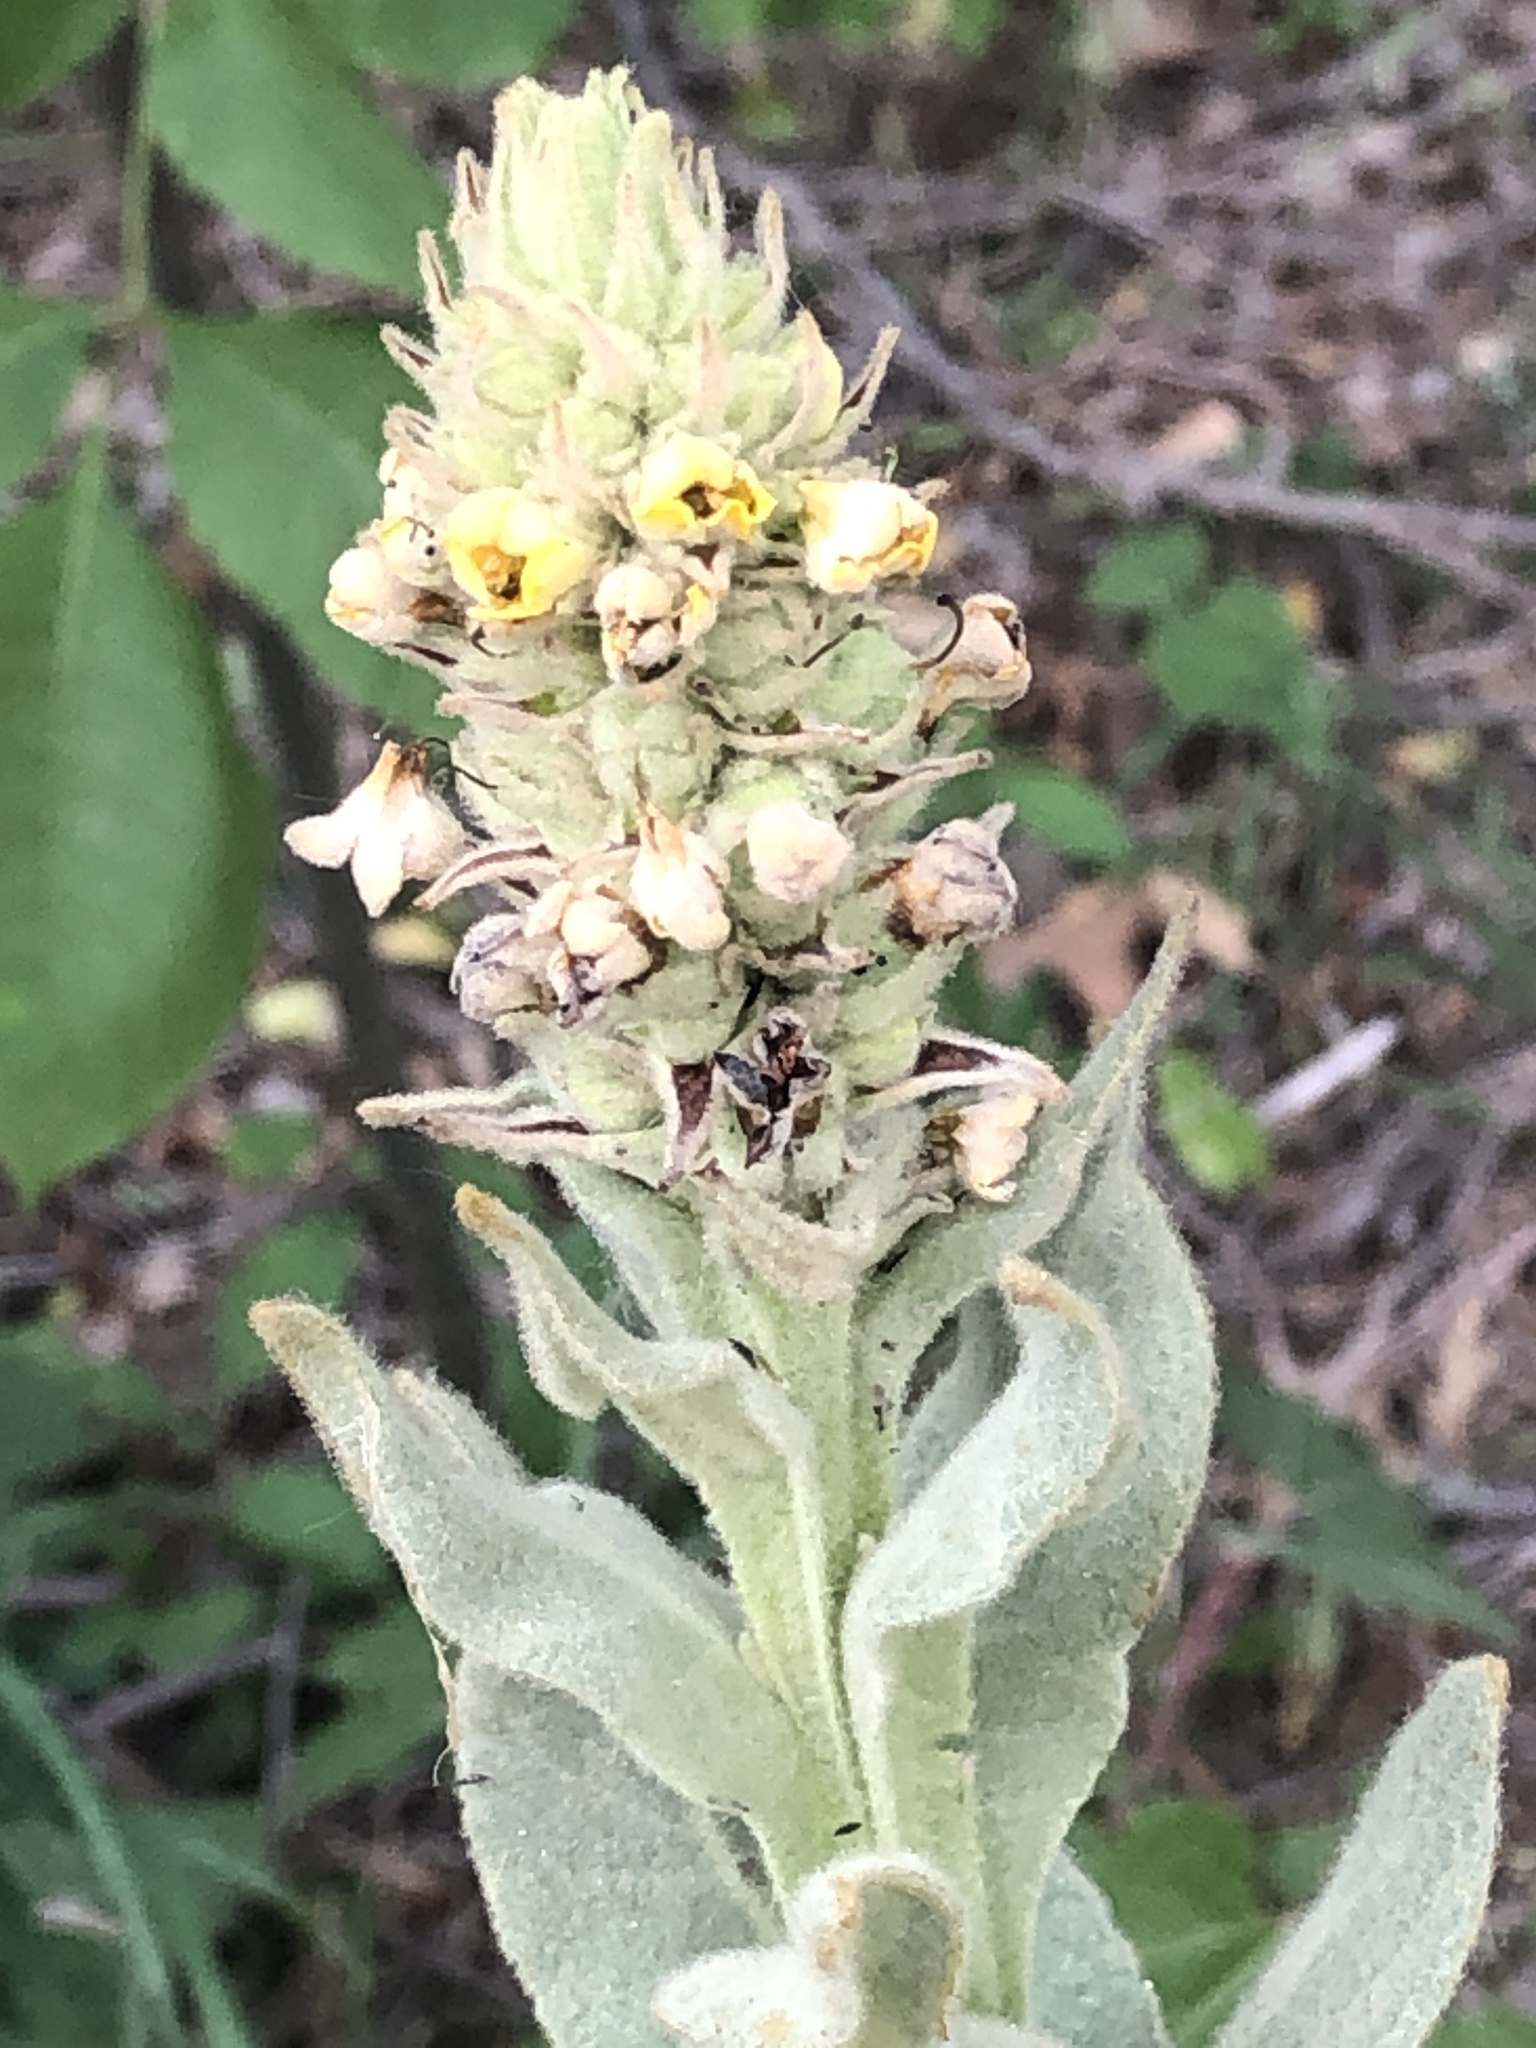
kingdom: Plantae
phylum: Tracheophyta
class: Magnoliopsida
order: Lamiales
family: Scrophulariaceae
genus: Verbascum
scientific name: Verbascum thapsus
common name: Common mullein
